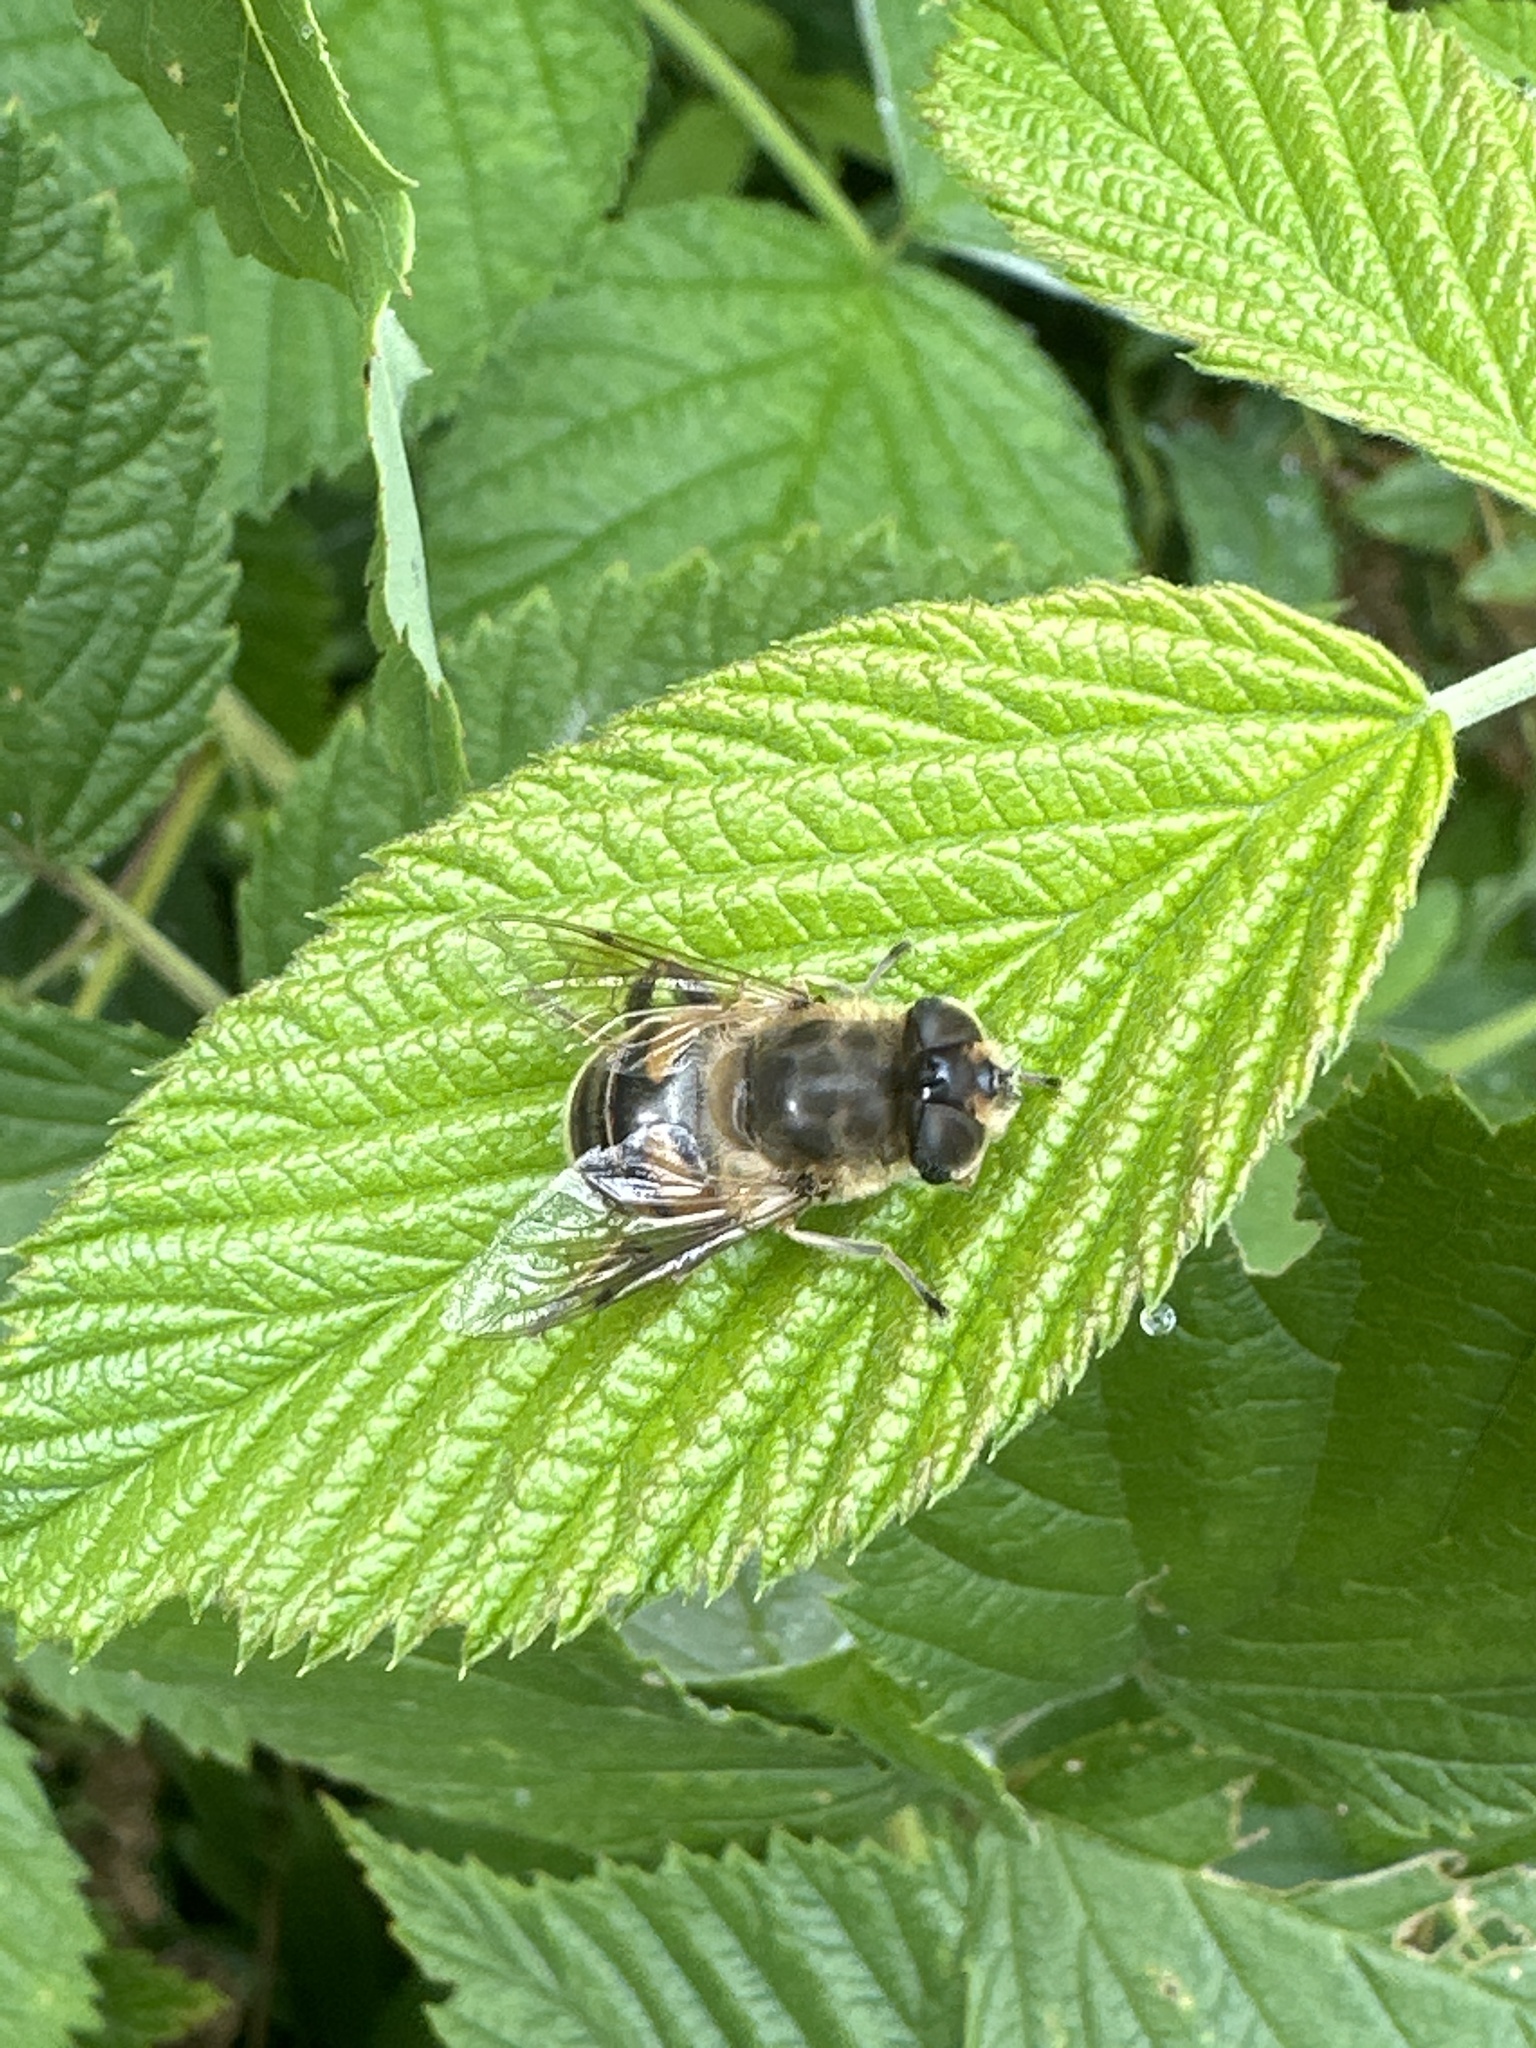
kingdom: Animalia
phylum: Arthropoda
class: Insecta
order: Diptera
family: Syrphidae
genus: Eristalis
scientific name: Eristalis tenax
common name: Drone fly
